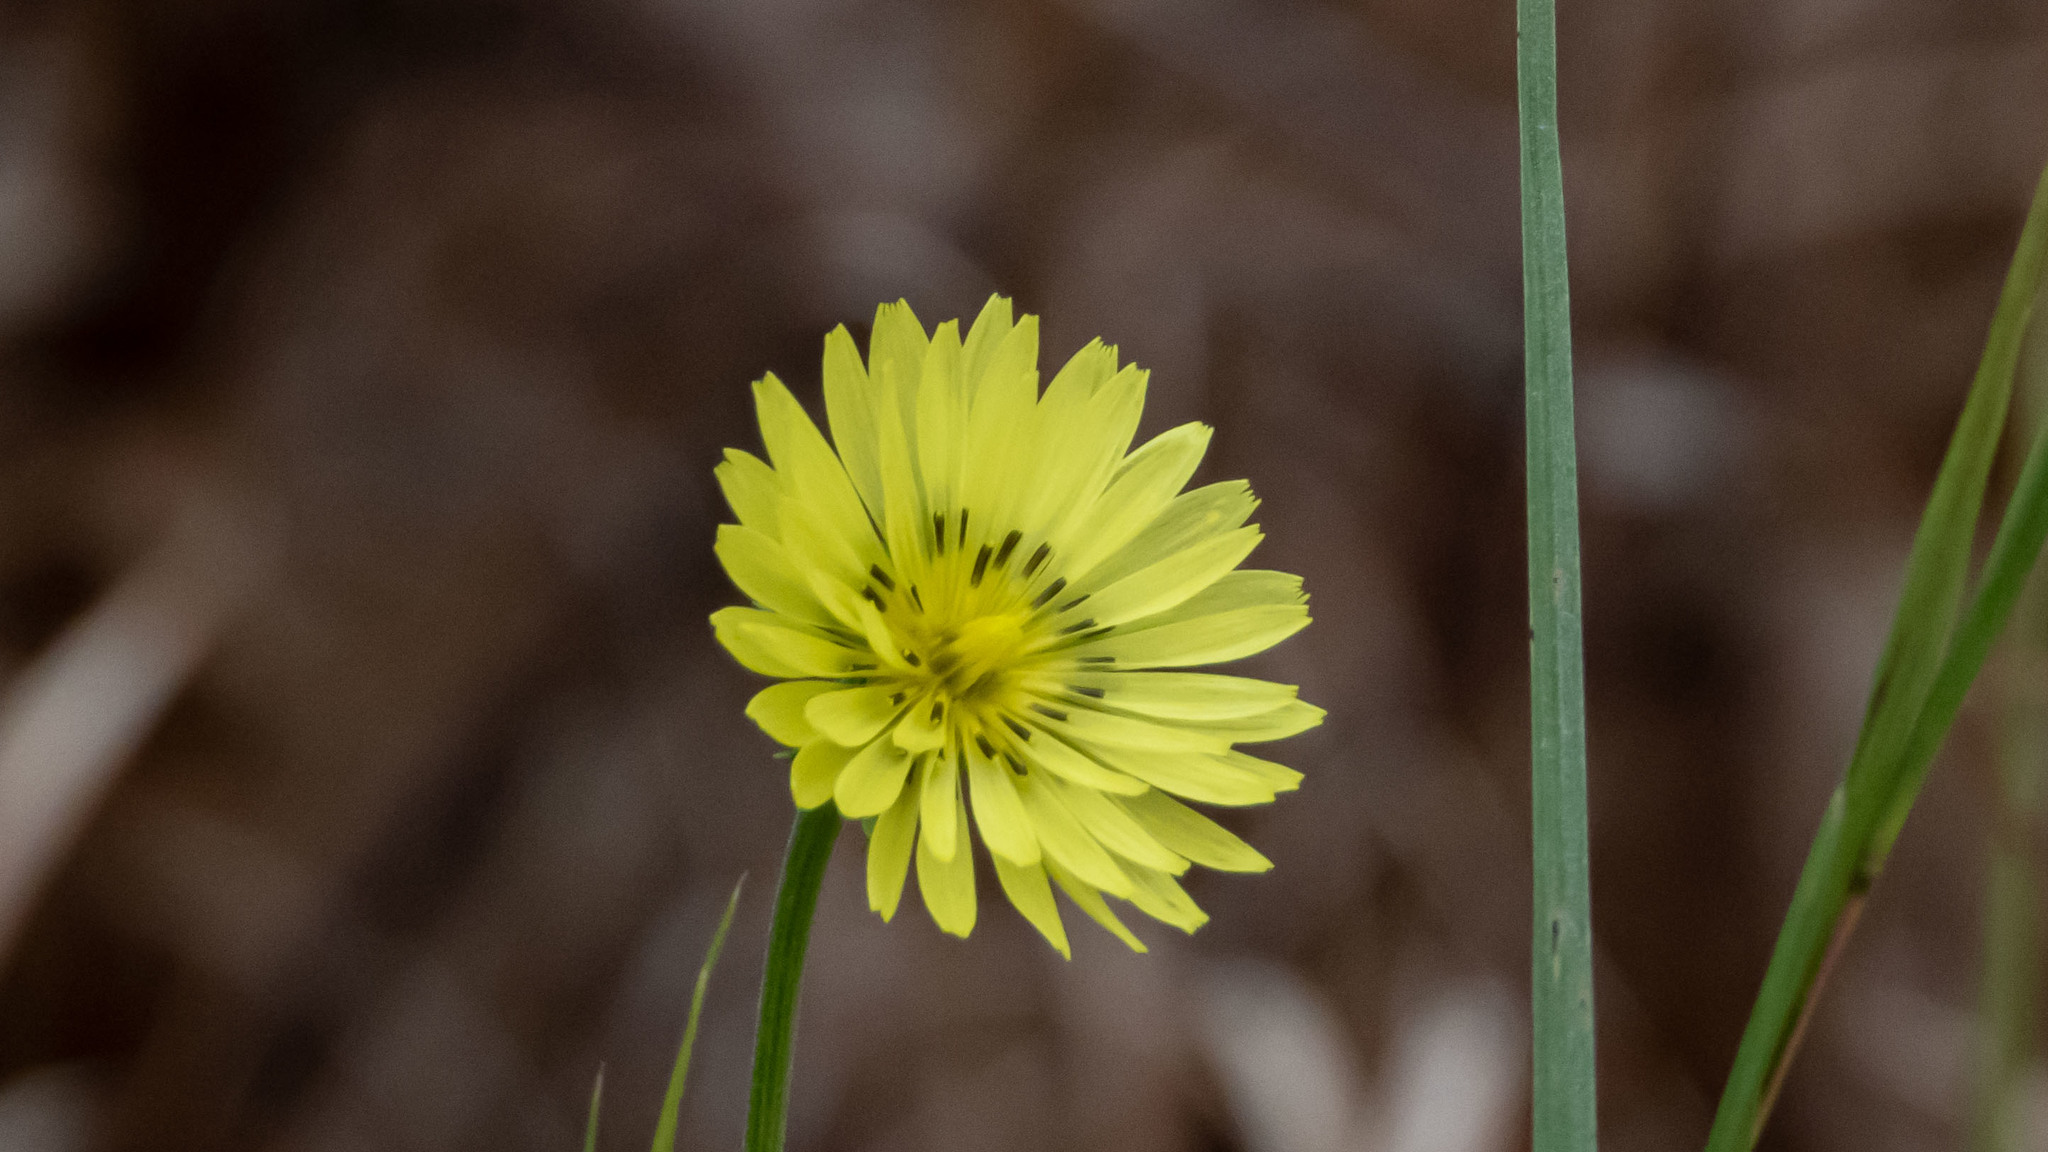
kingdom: Plantae
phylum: Tracheophyta
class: Magnoliopsida
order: Asterales
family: Asteraceae
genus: Pyrrhopappus
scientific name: Pyrrhopappus carolinianus
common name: Carolina desert-chicory
